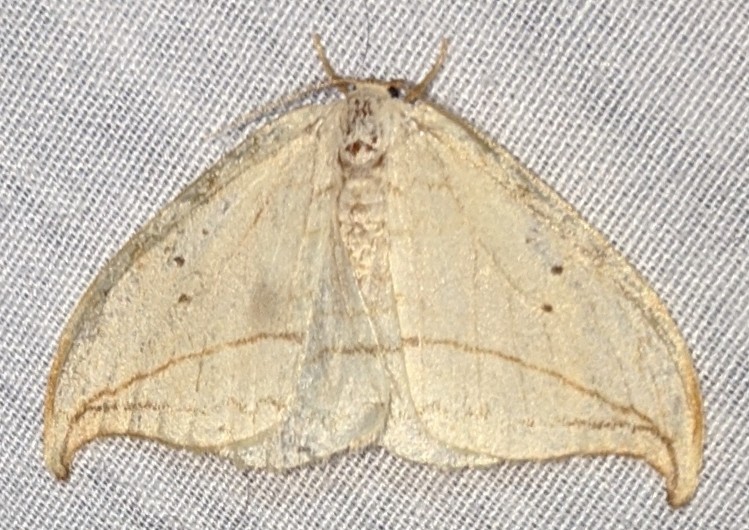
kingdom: Animalia
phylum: Arthropoda
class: Insecta
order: Lepidoptera
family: Drepanidae
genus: Drepana
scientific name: Drepana arcuata
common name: Arched hooktip moth
